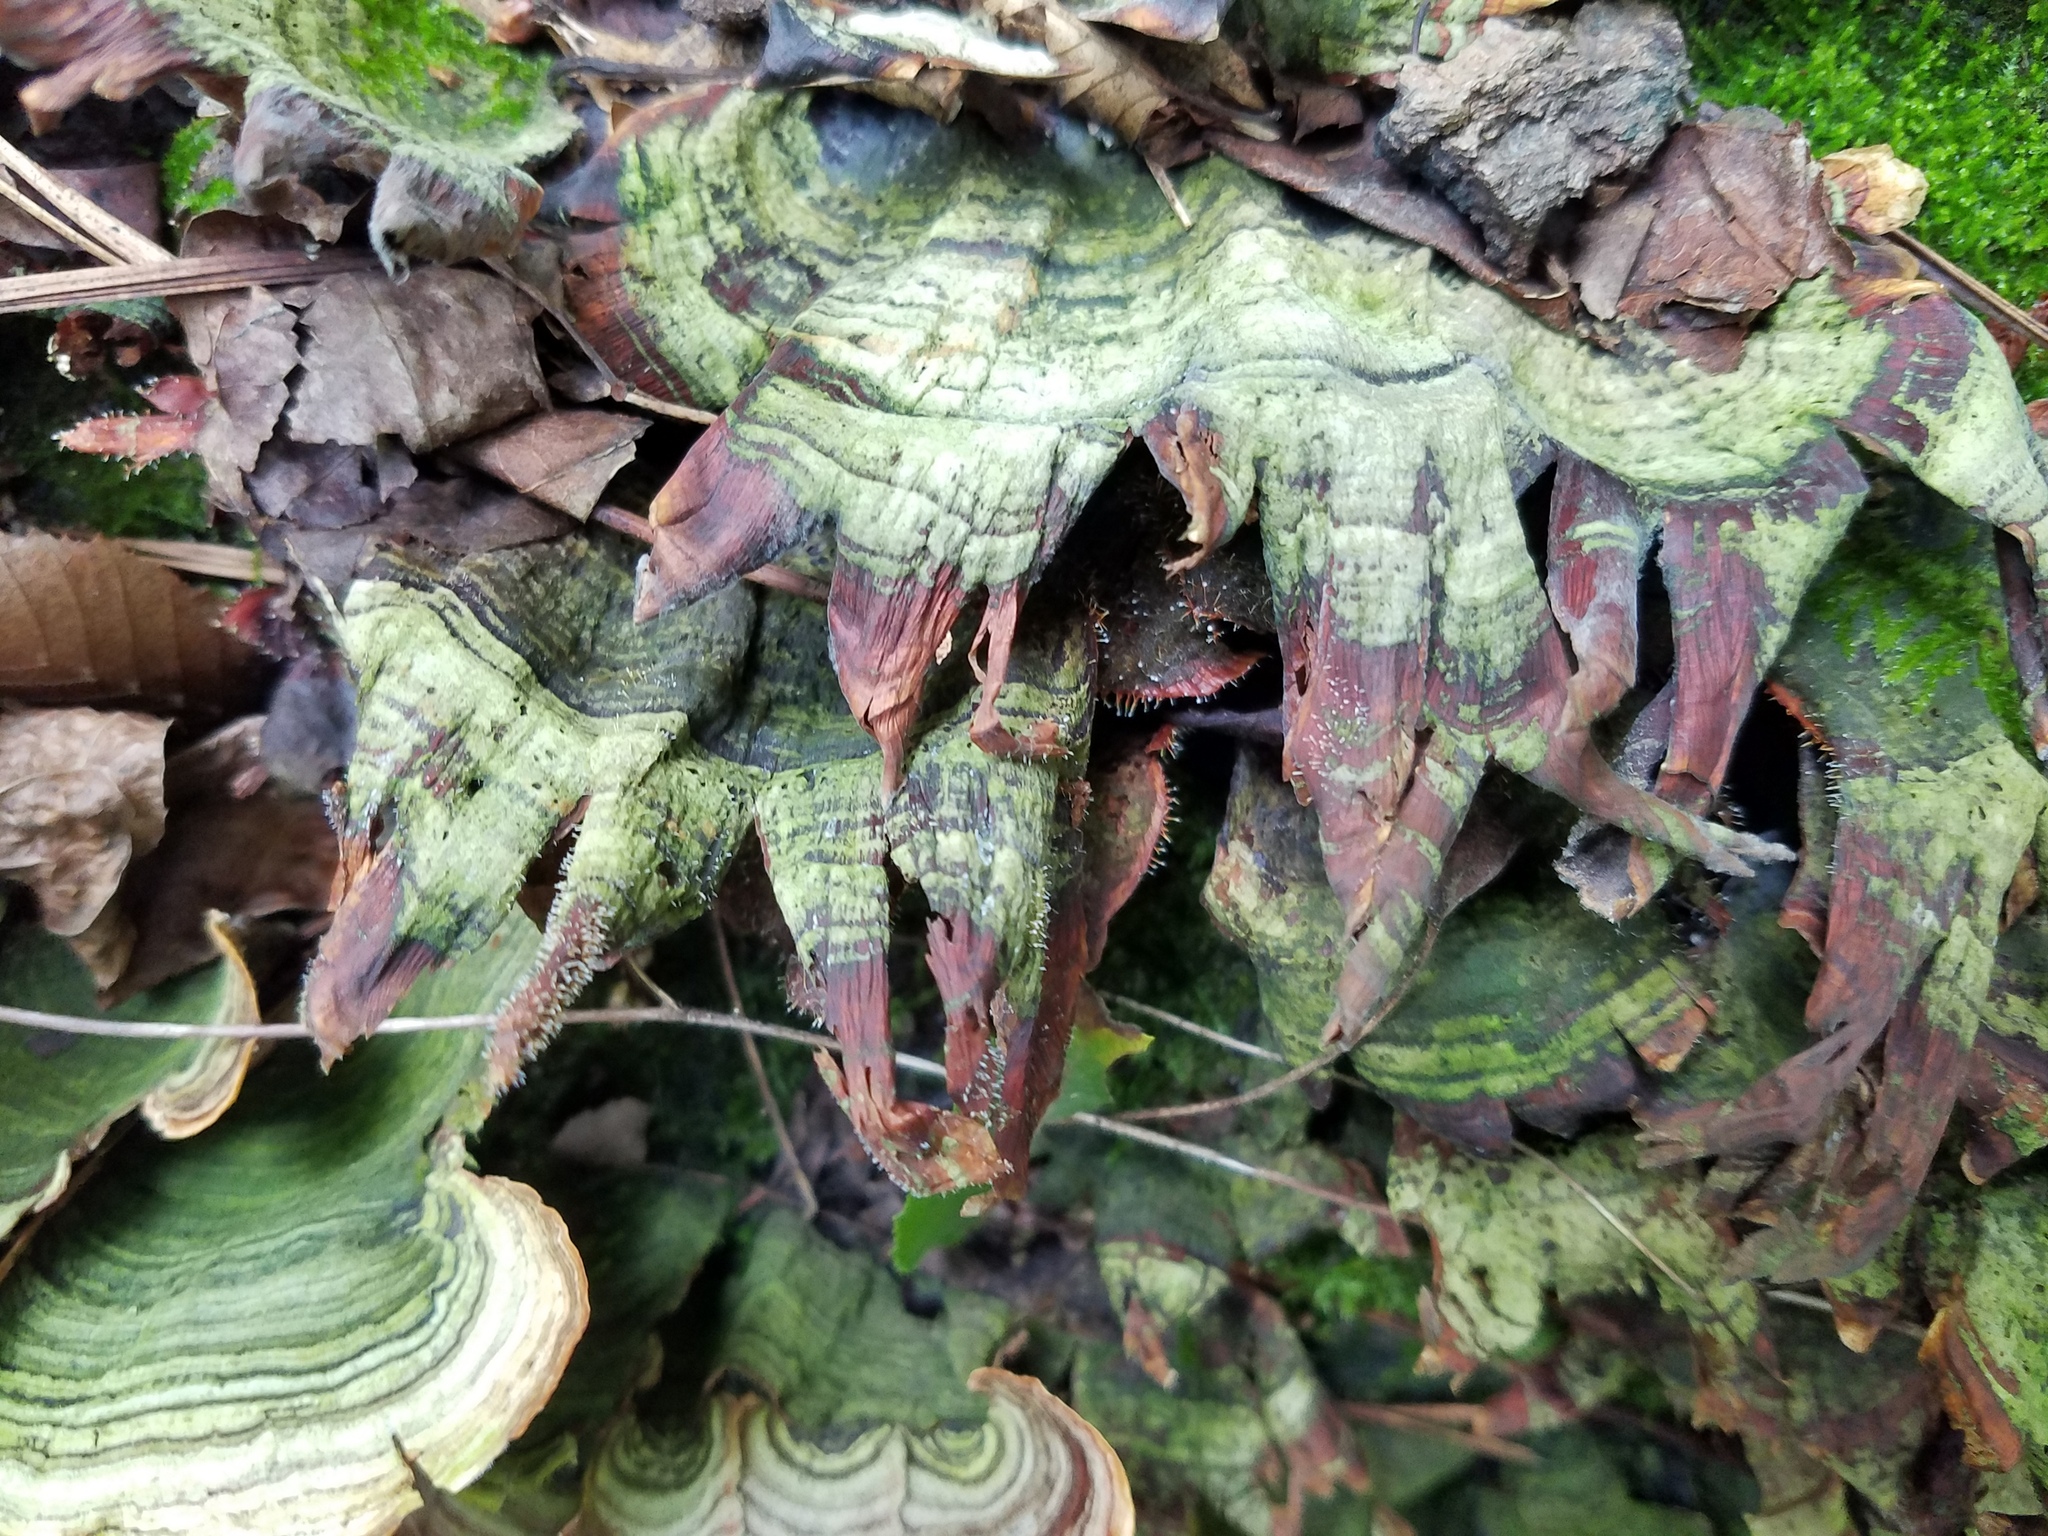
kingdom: Fungi
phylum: Ascomycota
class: Sordariomycetes
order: Hypocreales
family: Hypocreaceae
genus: Gliocladium
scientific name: Gliocladium polyporicola
